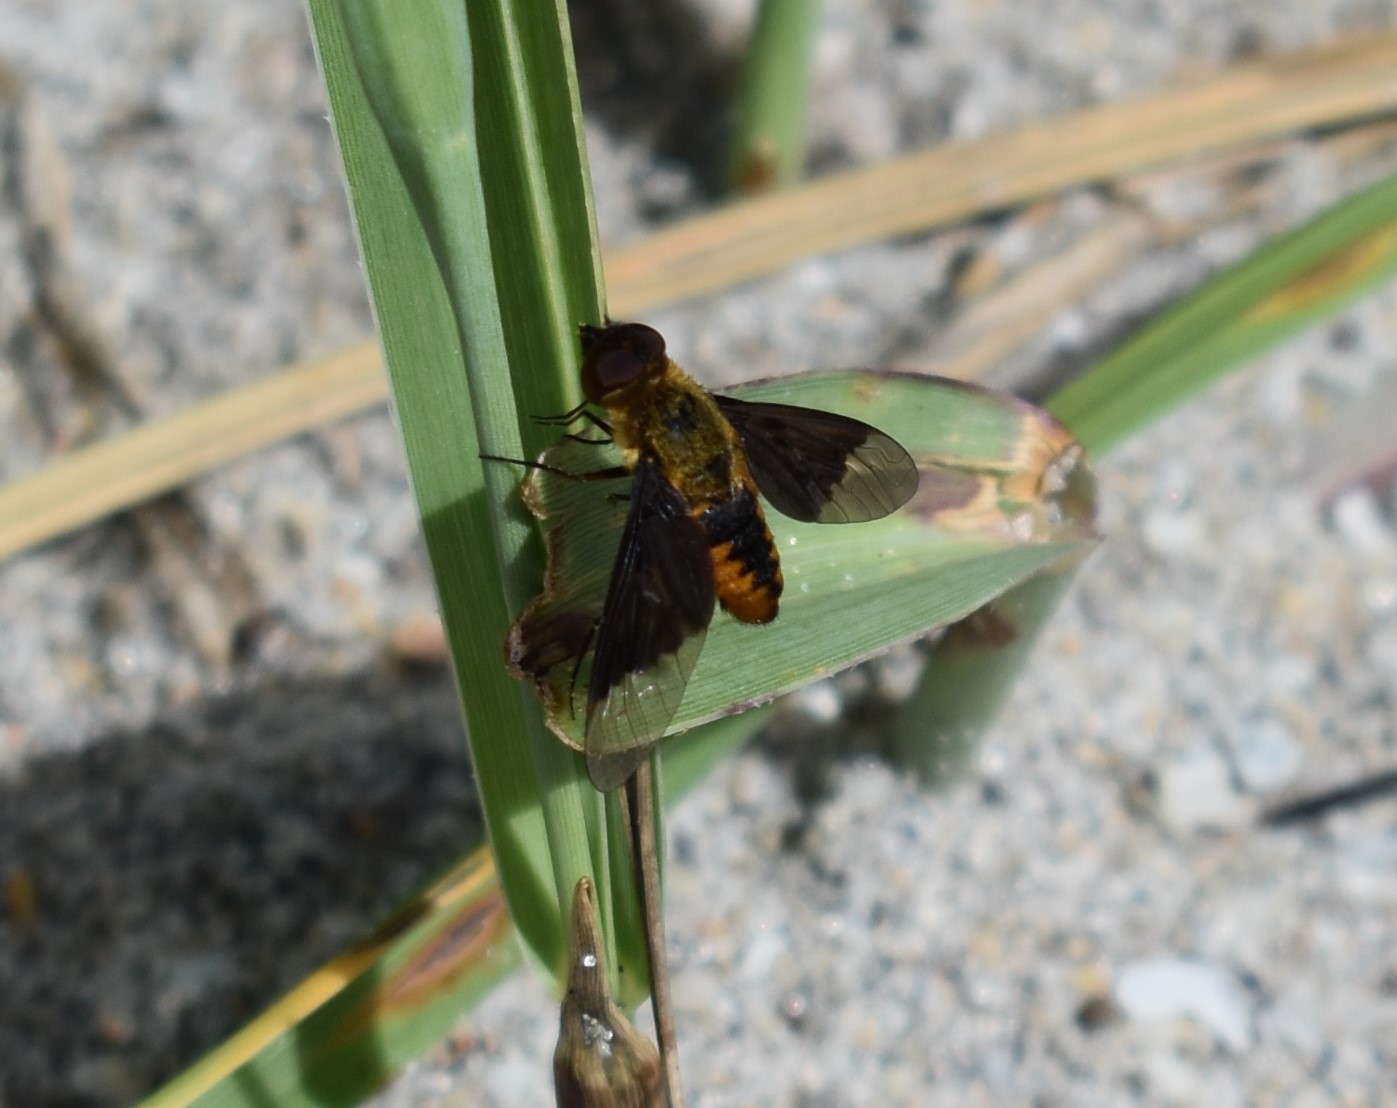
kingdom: Animalia
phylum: Arthropoda
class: Insecta
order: Diptera
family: Bombyliidae
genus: Chrysanthrax
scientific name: Chrysanthrax cypris
